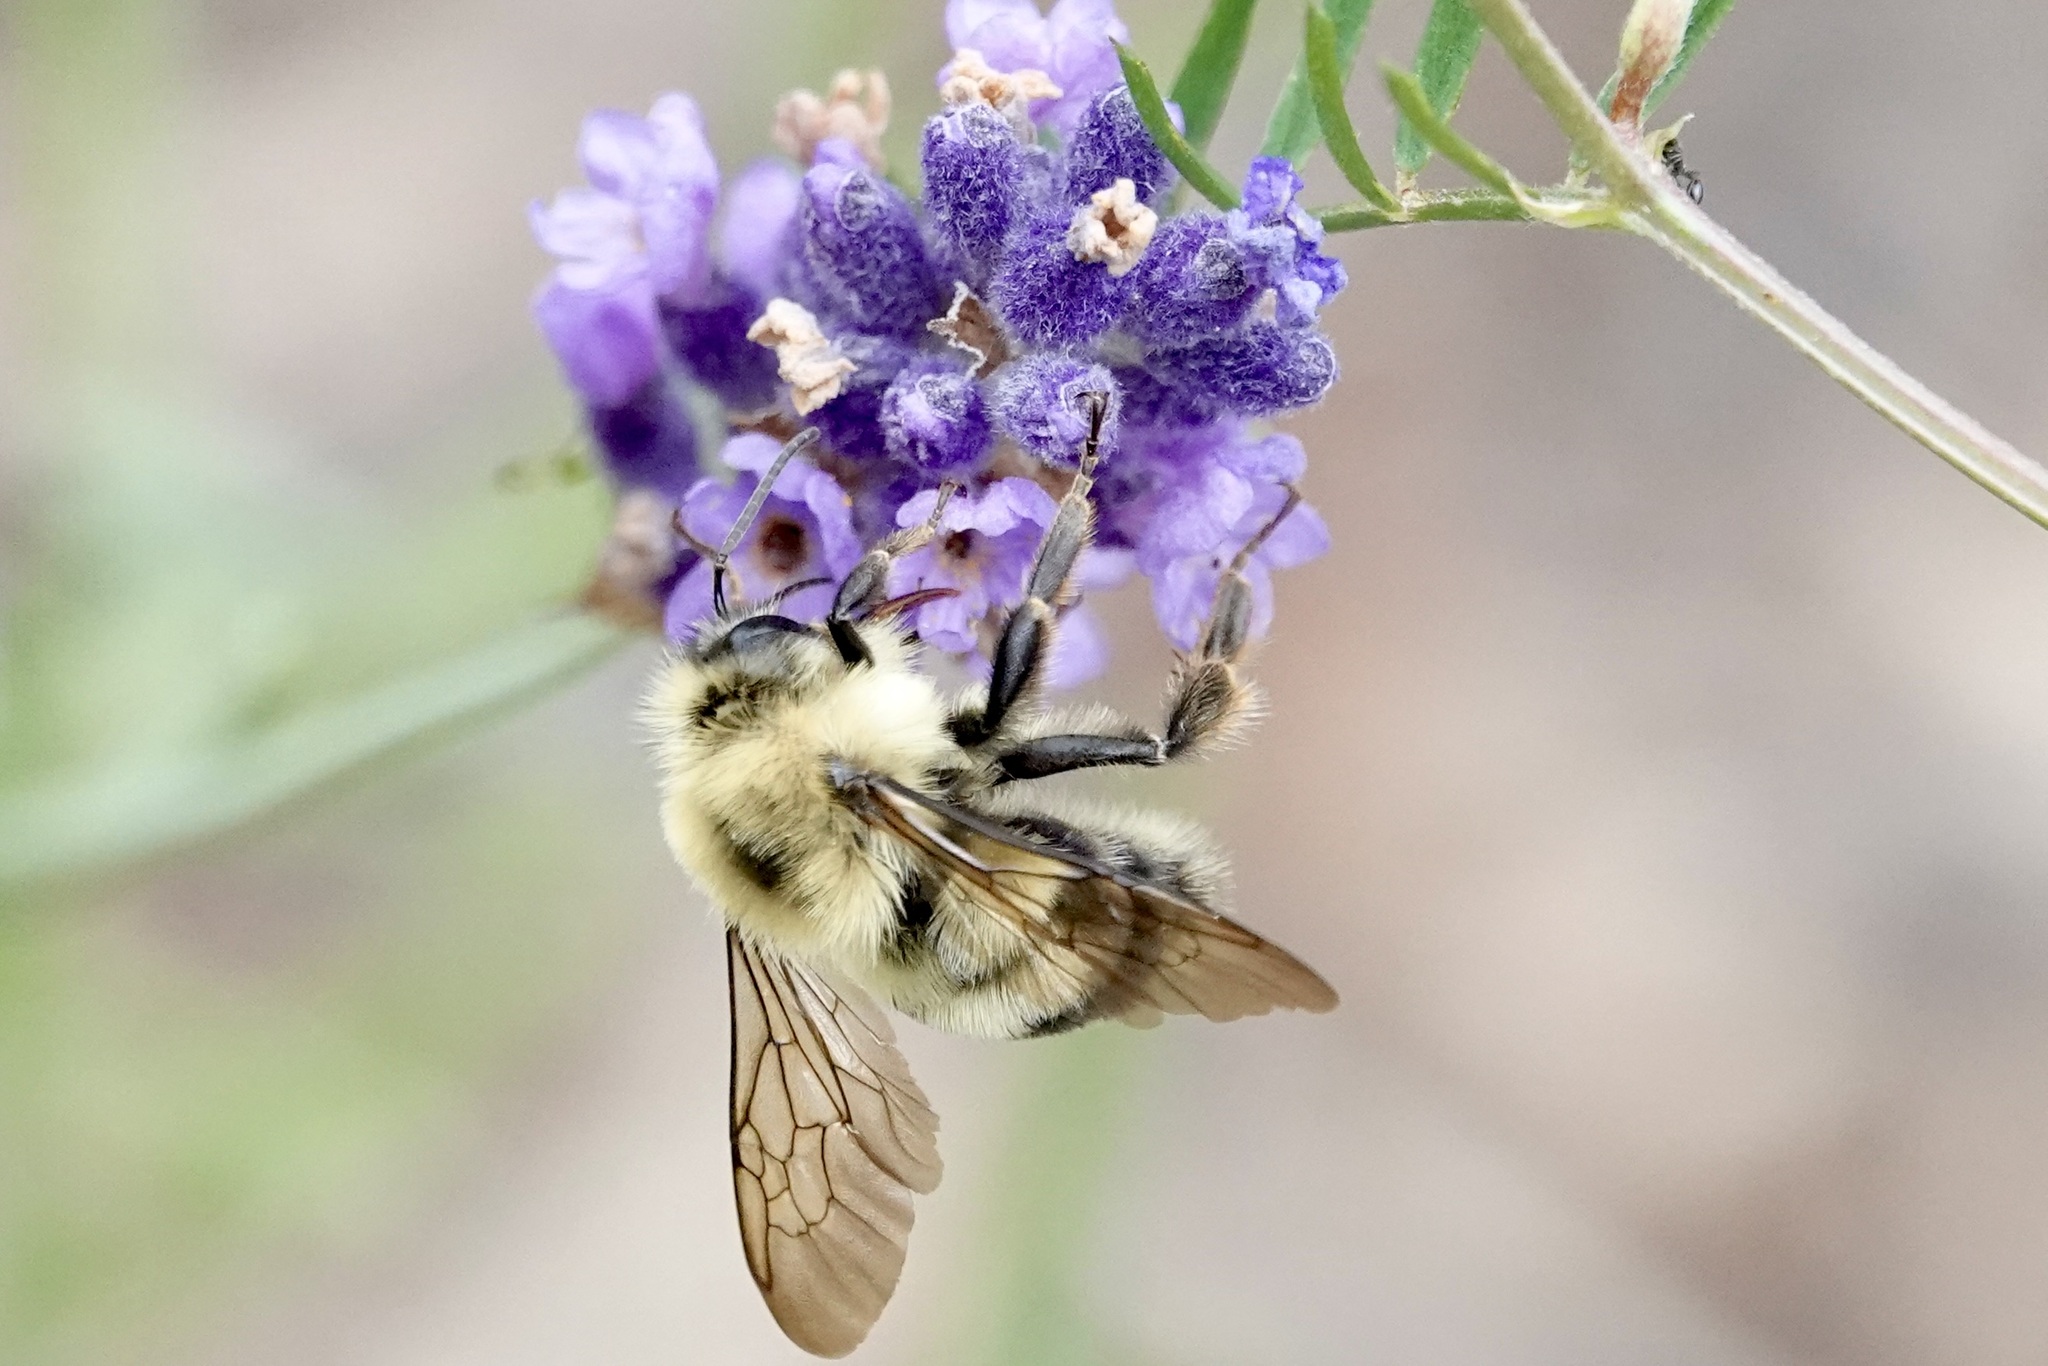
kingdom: Animalia
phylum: Arthropoda
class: Insecta
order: Hymenoptera
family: Apidae
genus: Bombus
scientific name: Bombus bimaculatus
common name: Two-spotted bumble bee
